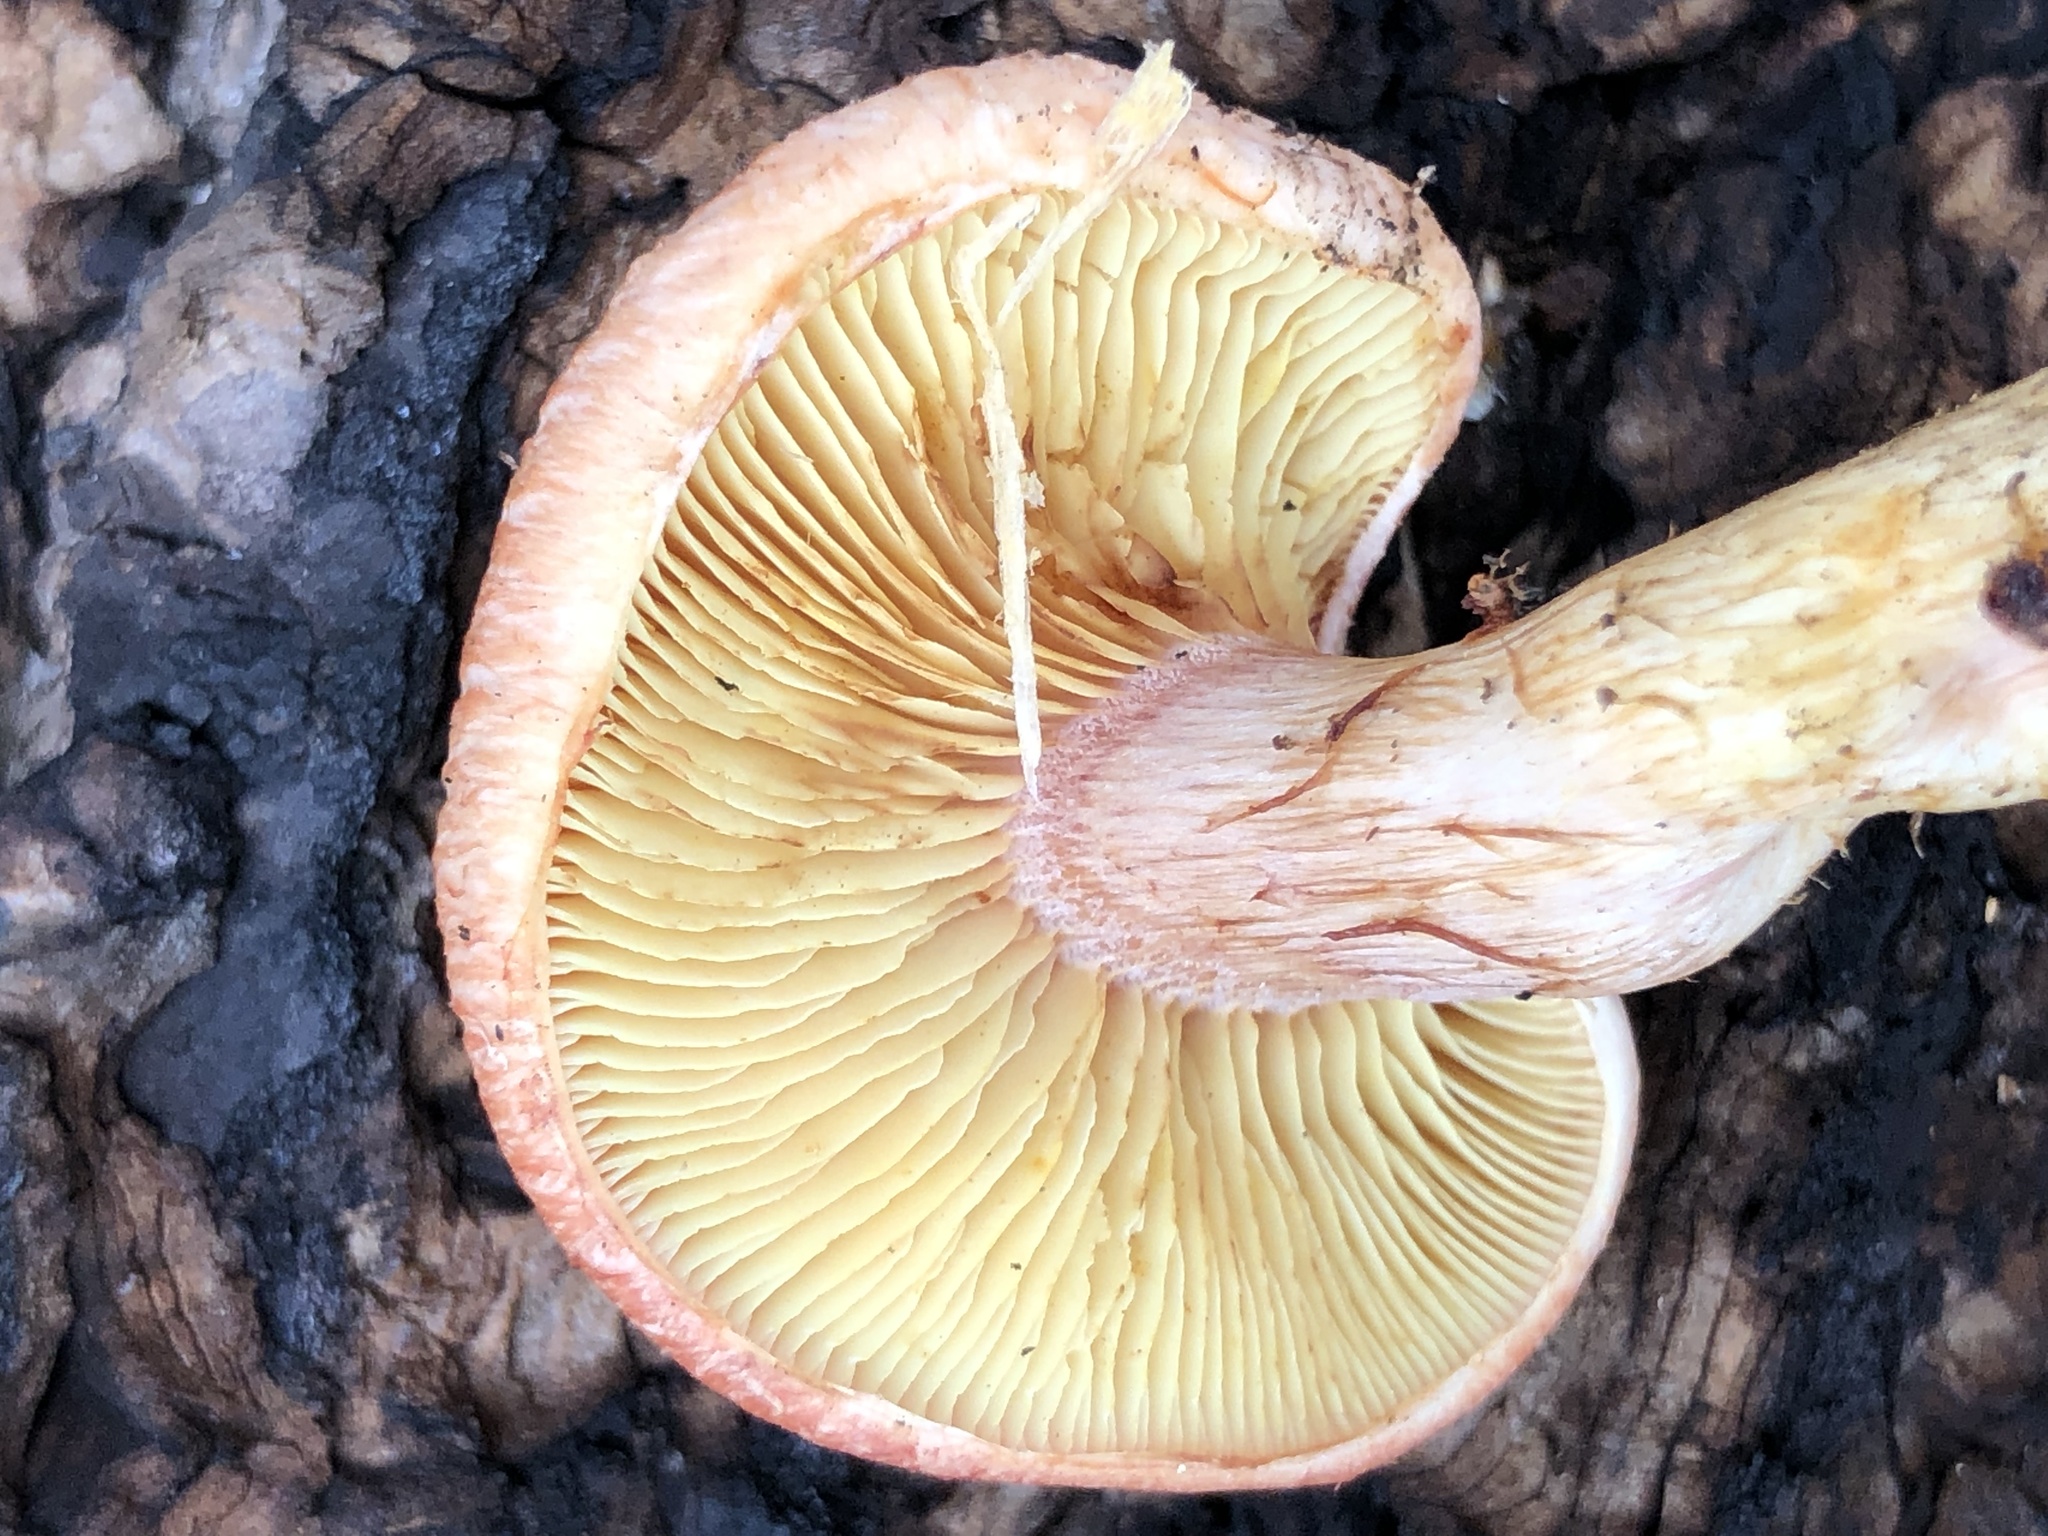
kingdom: Fungi
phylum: Basidiomycota
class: Agaricomycetes
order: Agaricales
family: Hymenogastraceae
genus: Gymnopilus
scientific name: Gymnopilus luteofolius
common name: Yellow-gilled gymnopilus
